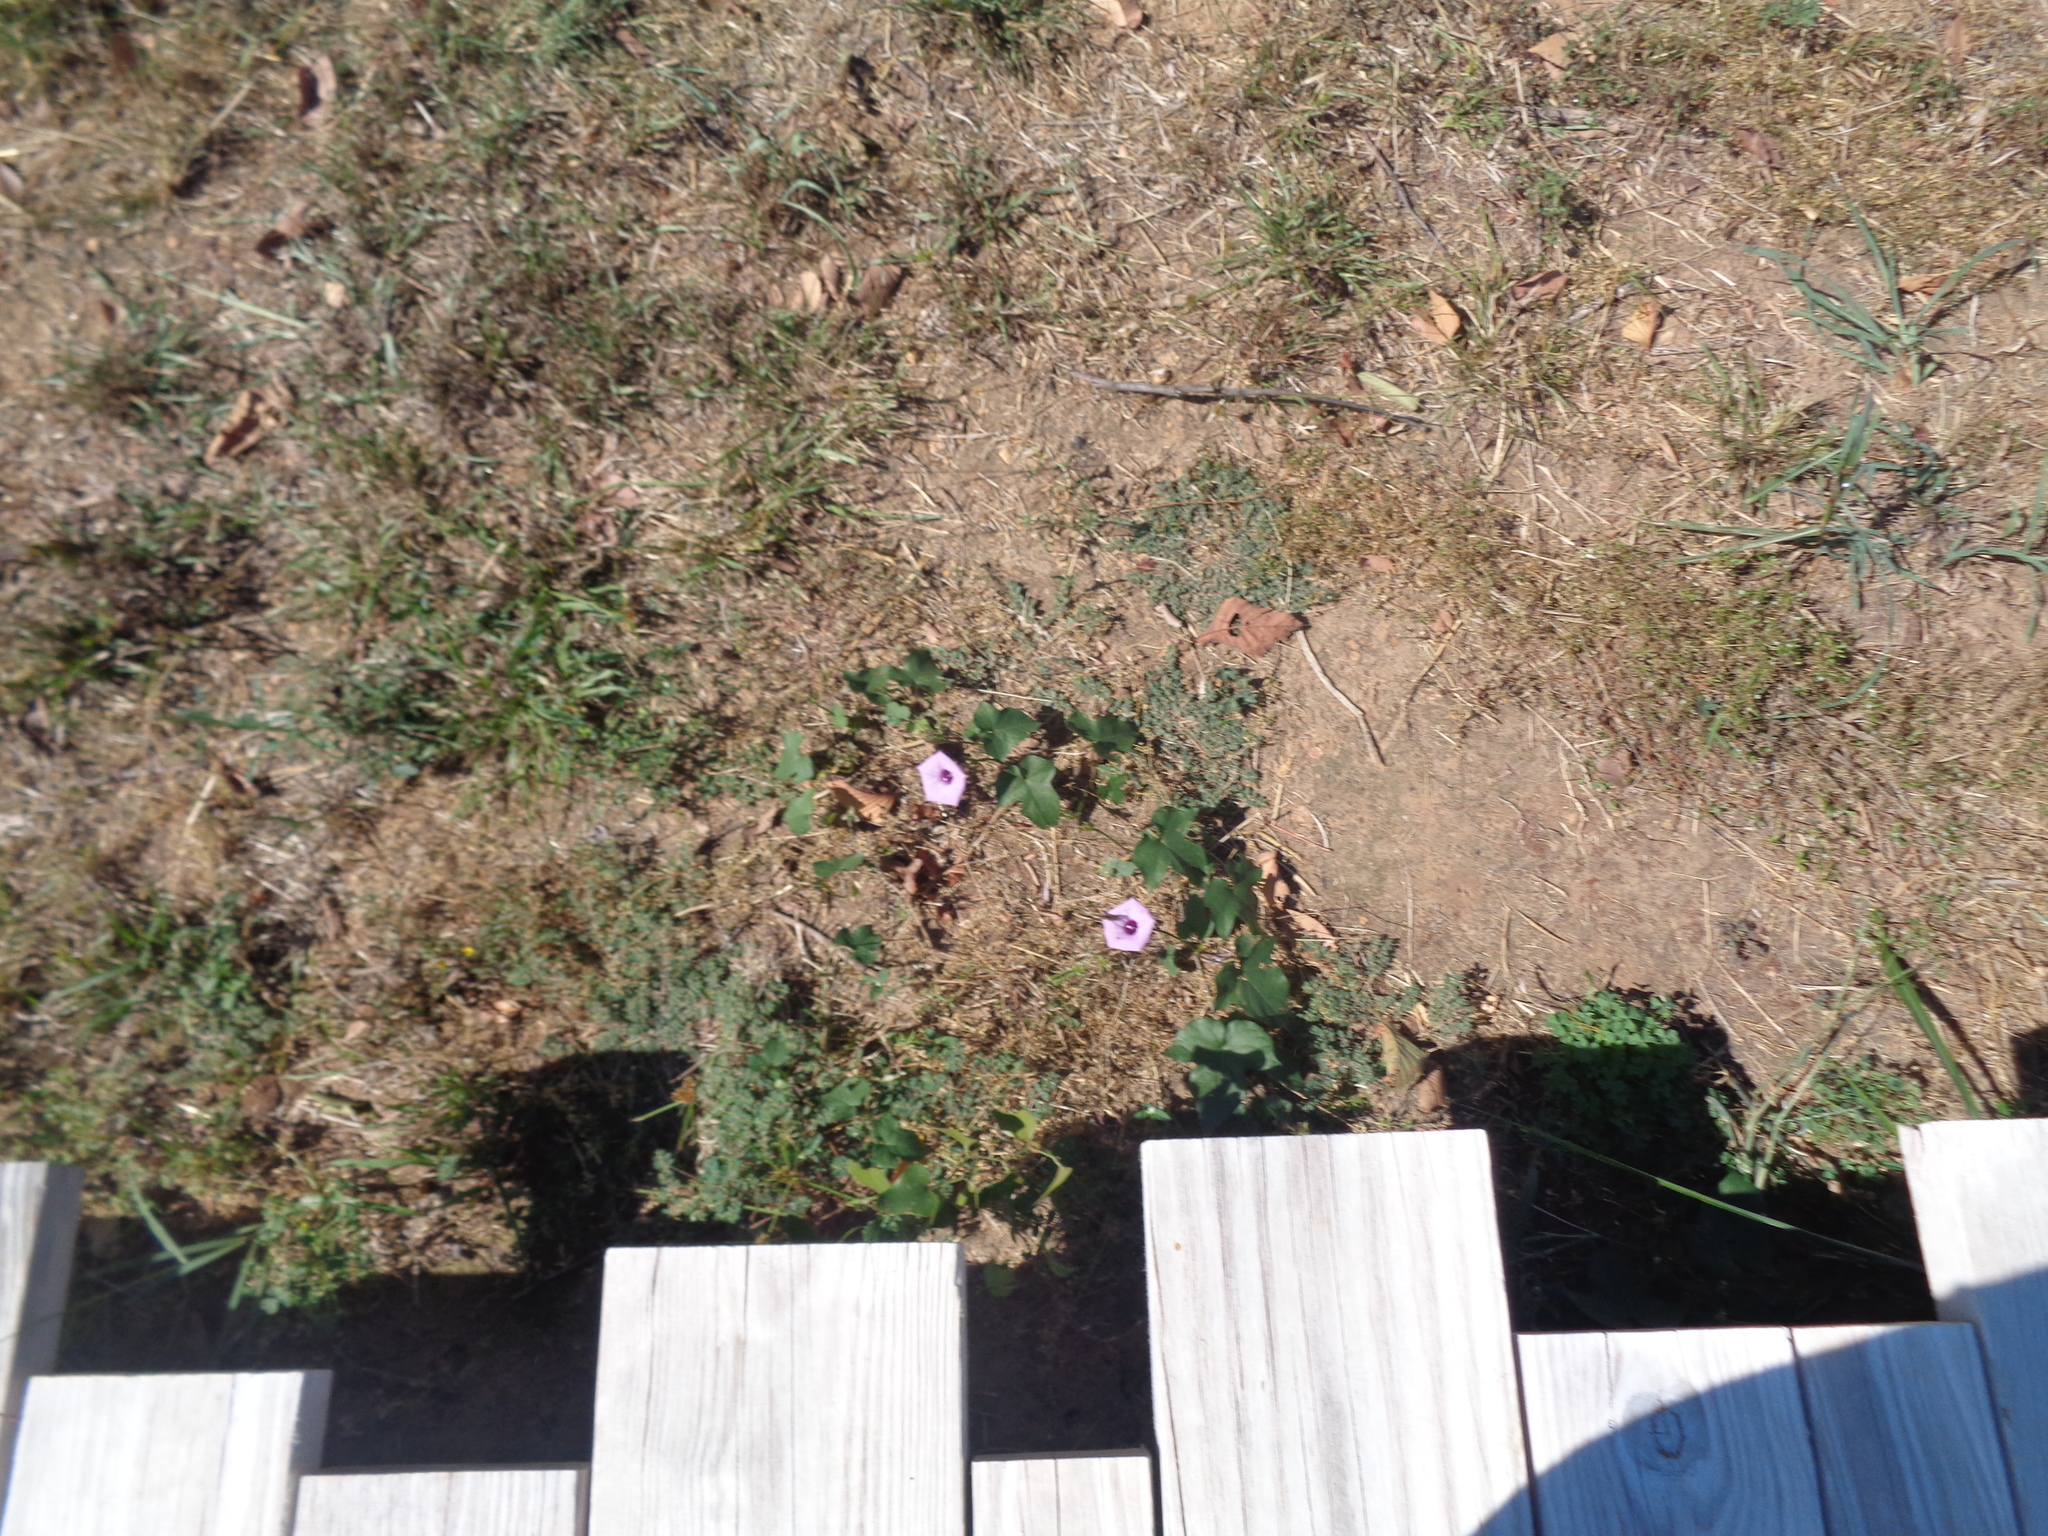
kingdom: Plantae
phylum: Tracheophyta
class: Magnoliopsida
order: Solanales
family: Convolvulaceae
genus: Ipomoea
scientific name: Ipomoea cordatotriloba
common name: Cotton morning glory
